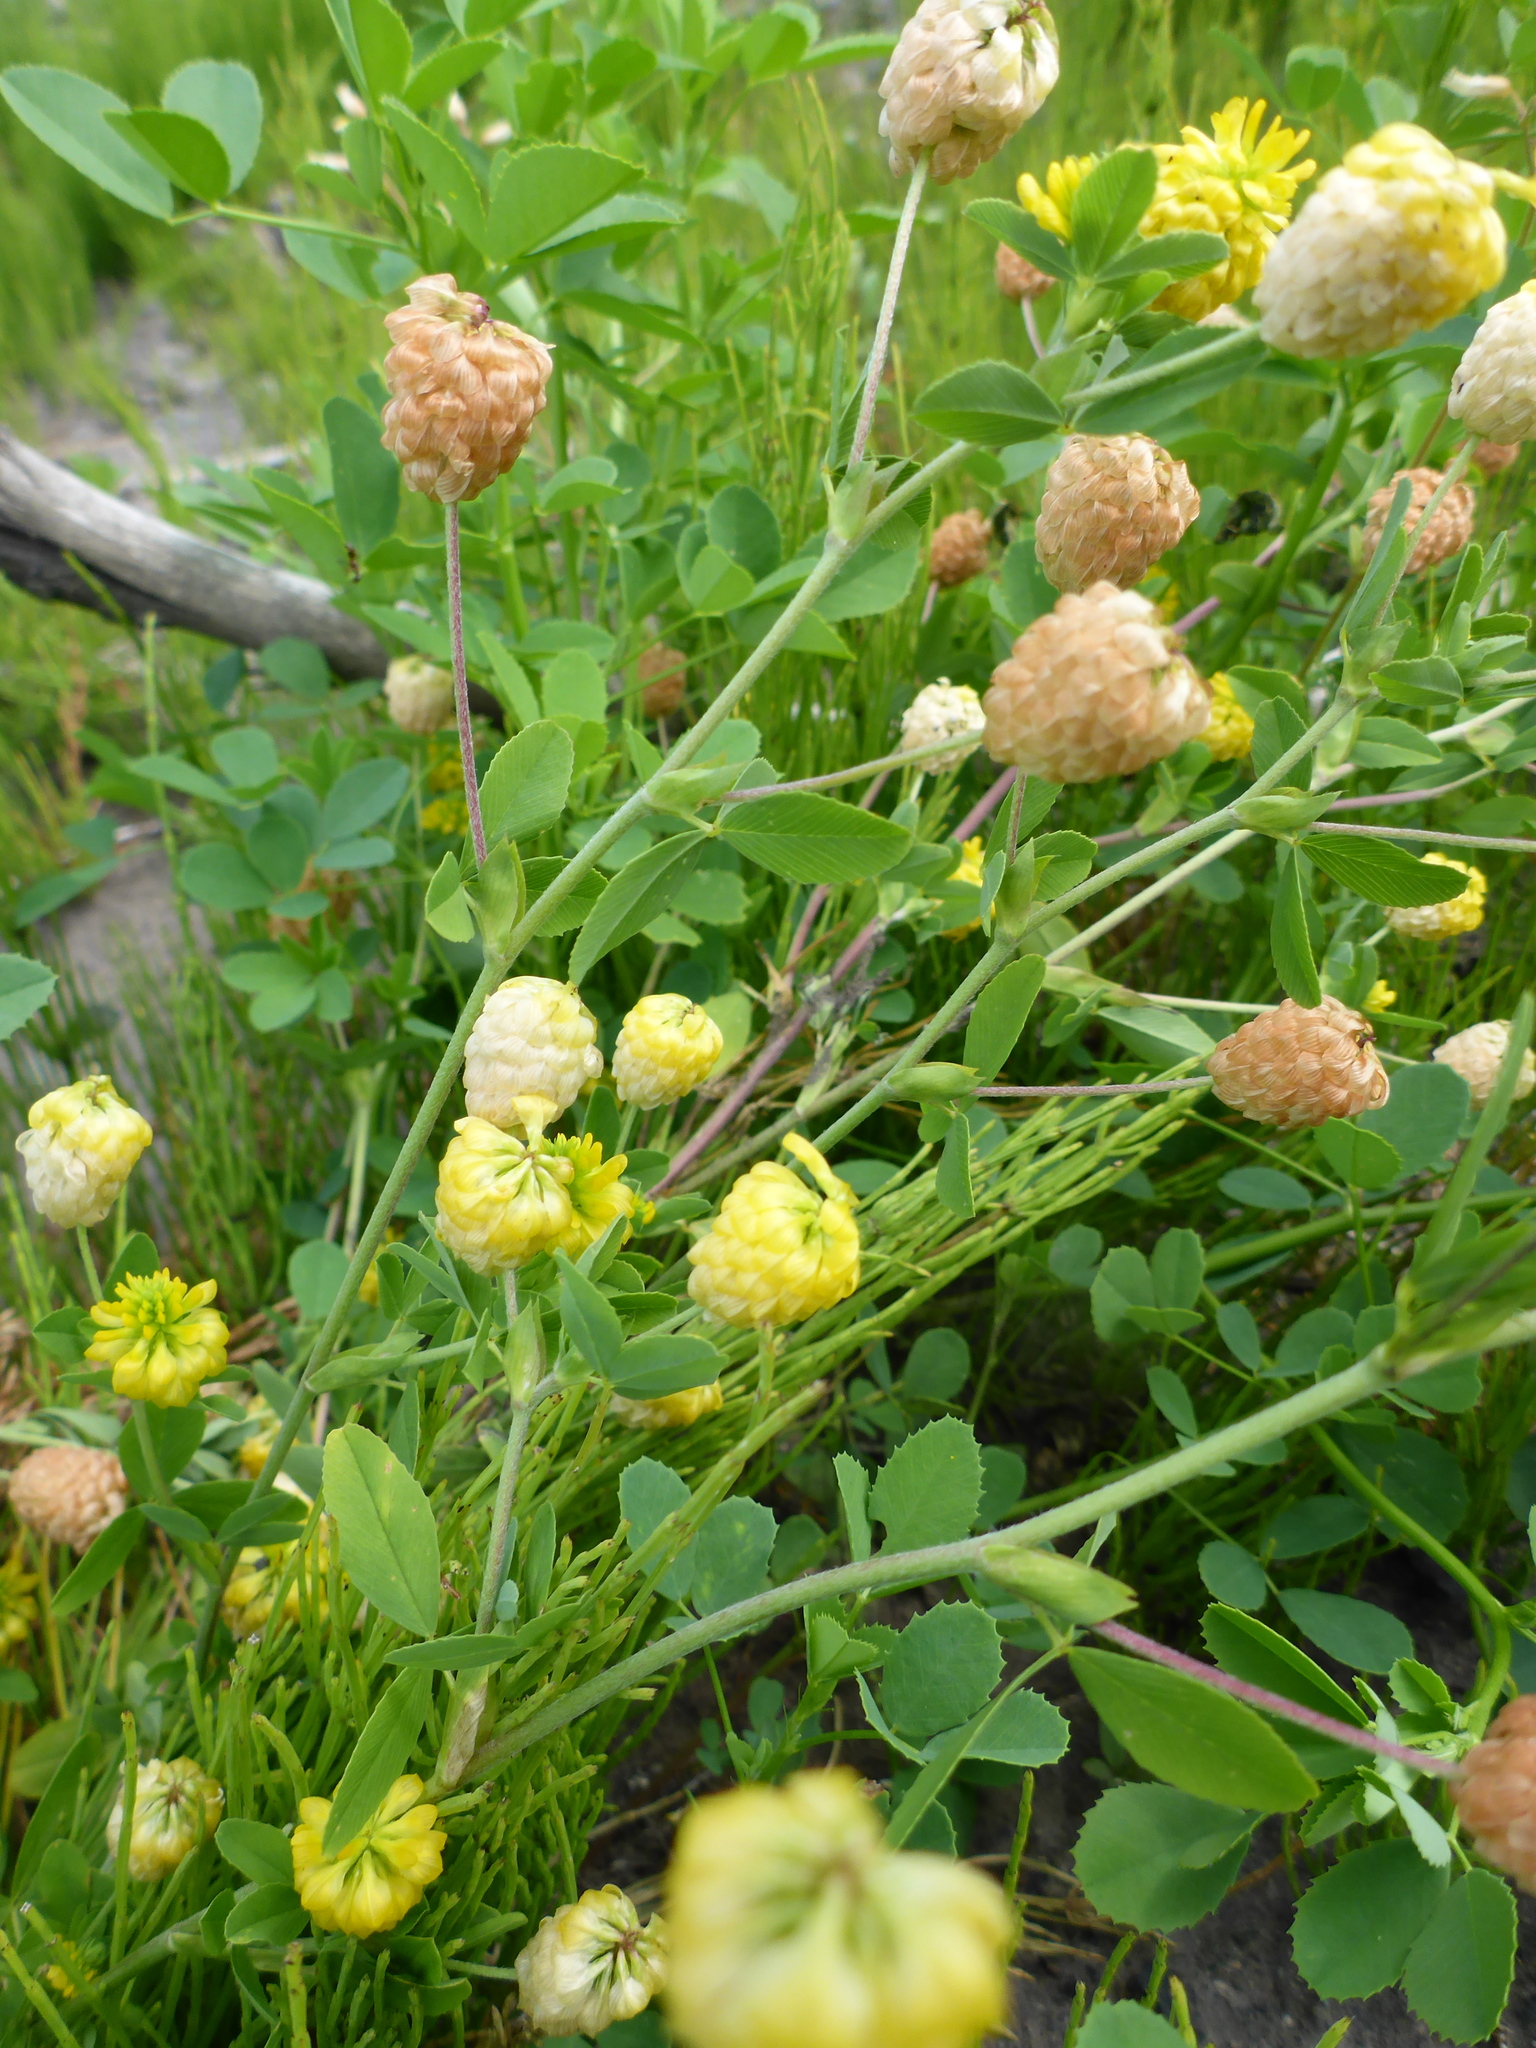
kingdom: Plantae
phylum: Tracheophyta
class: Magnoliopsida
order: Fabales
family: Fabaceae
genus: Trifolium
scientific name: Trifolium aureum
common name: Golden clover
